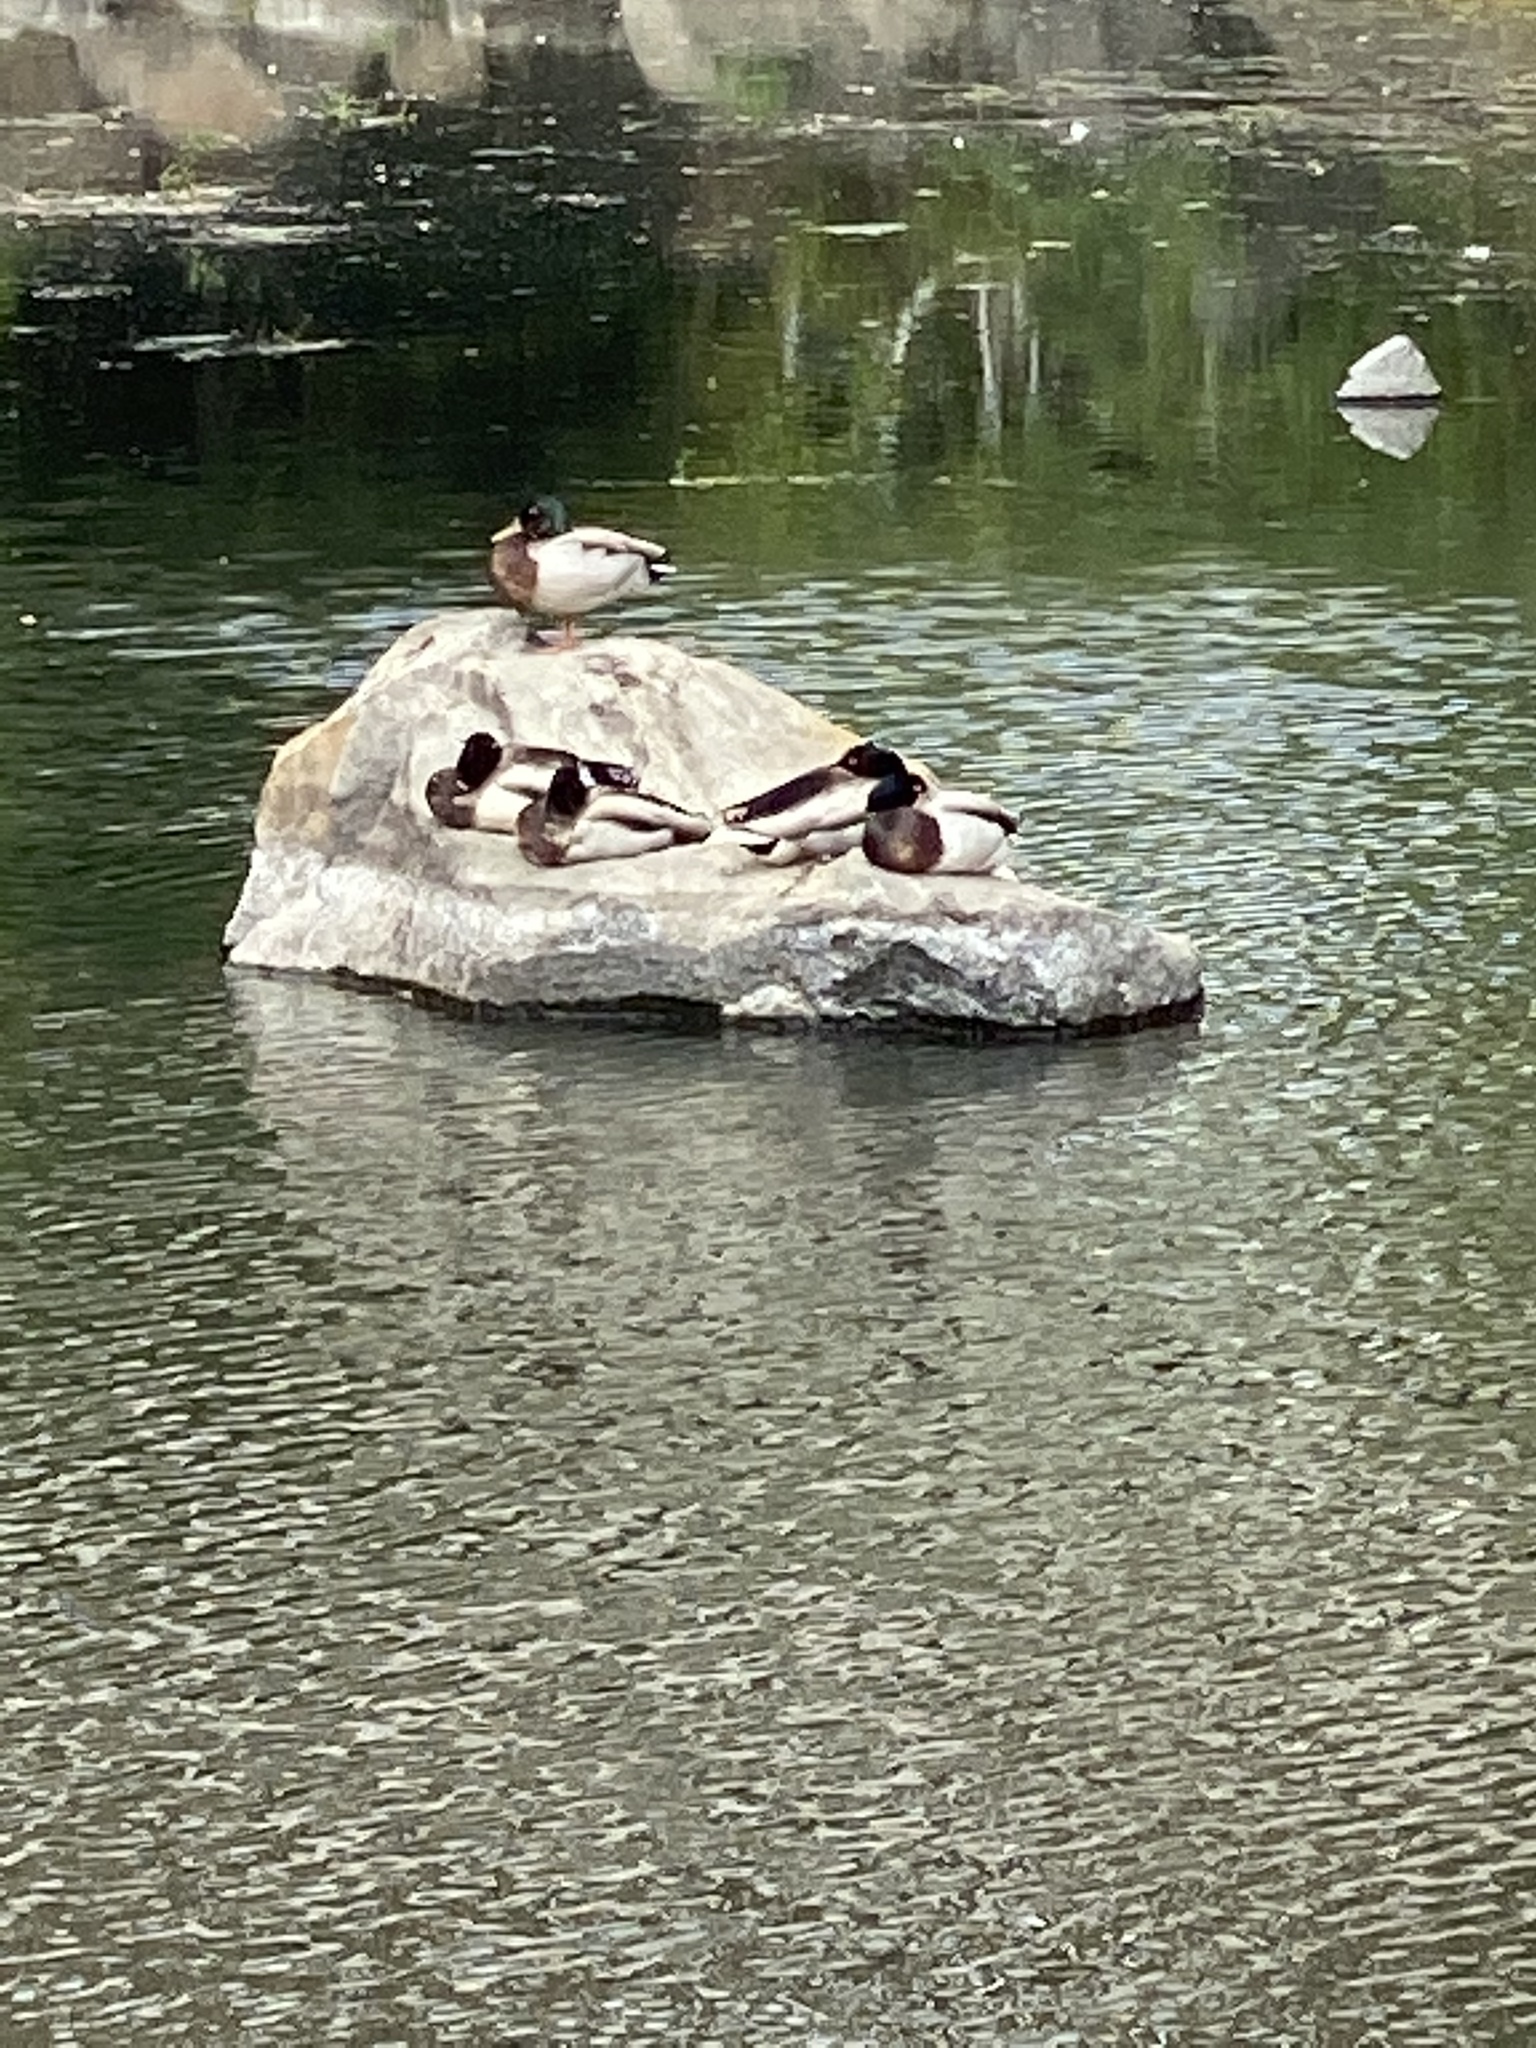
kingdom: Animalia
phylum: Chordata
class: Aves
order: Anseriformes
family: Anatidae
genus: Anas
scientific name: Anas platyrhynchos
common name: Mallard
